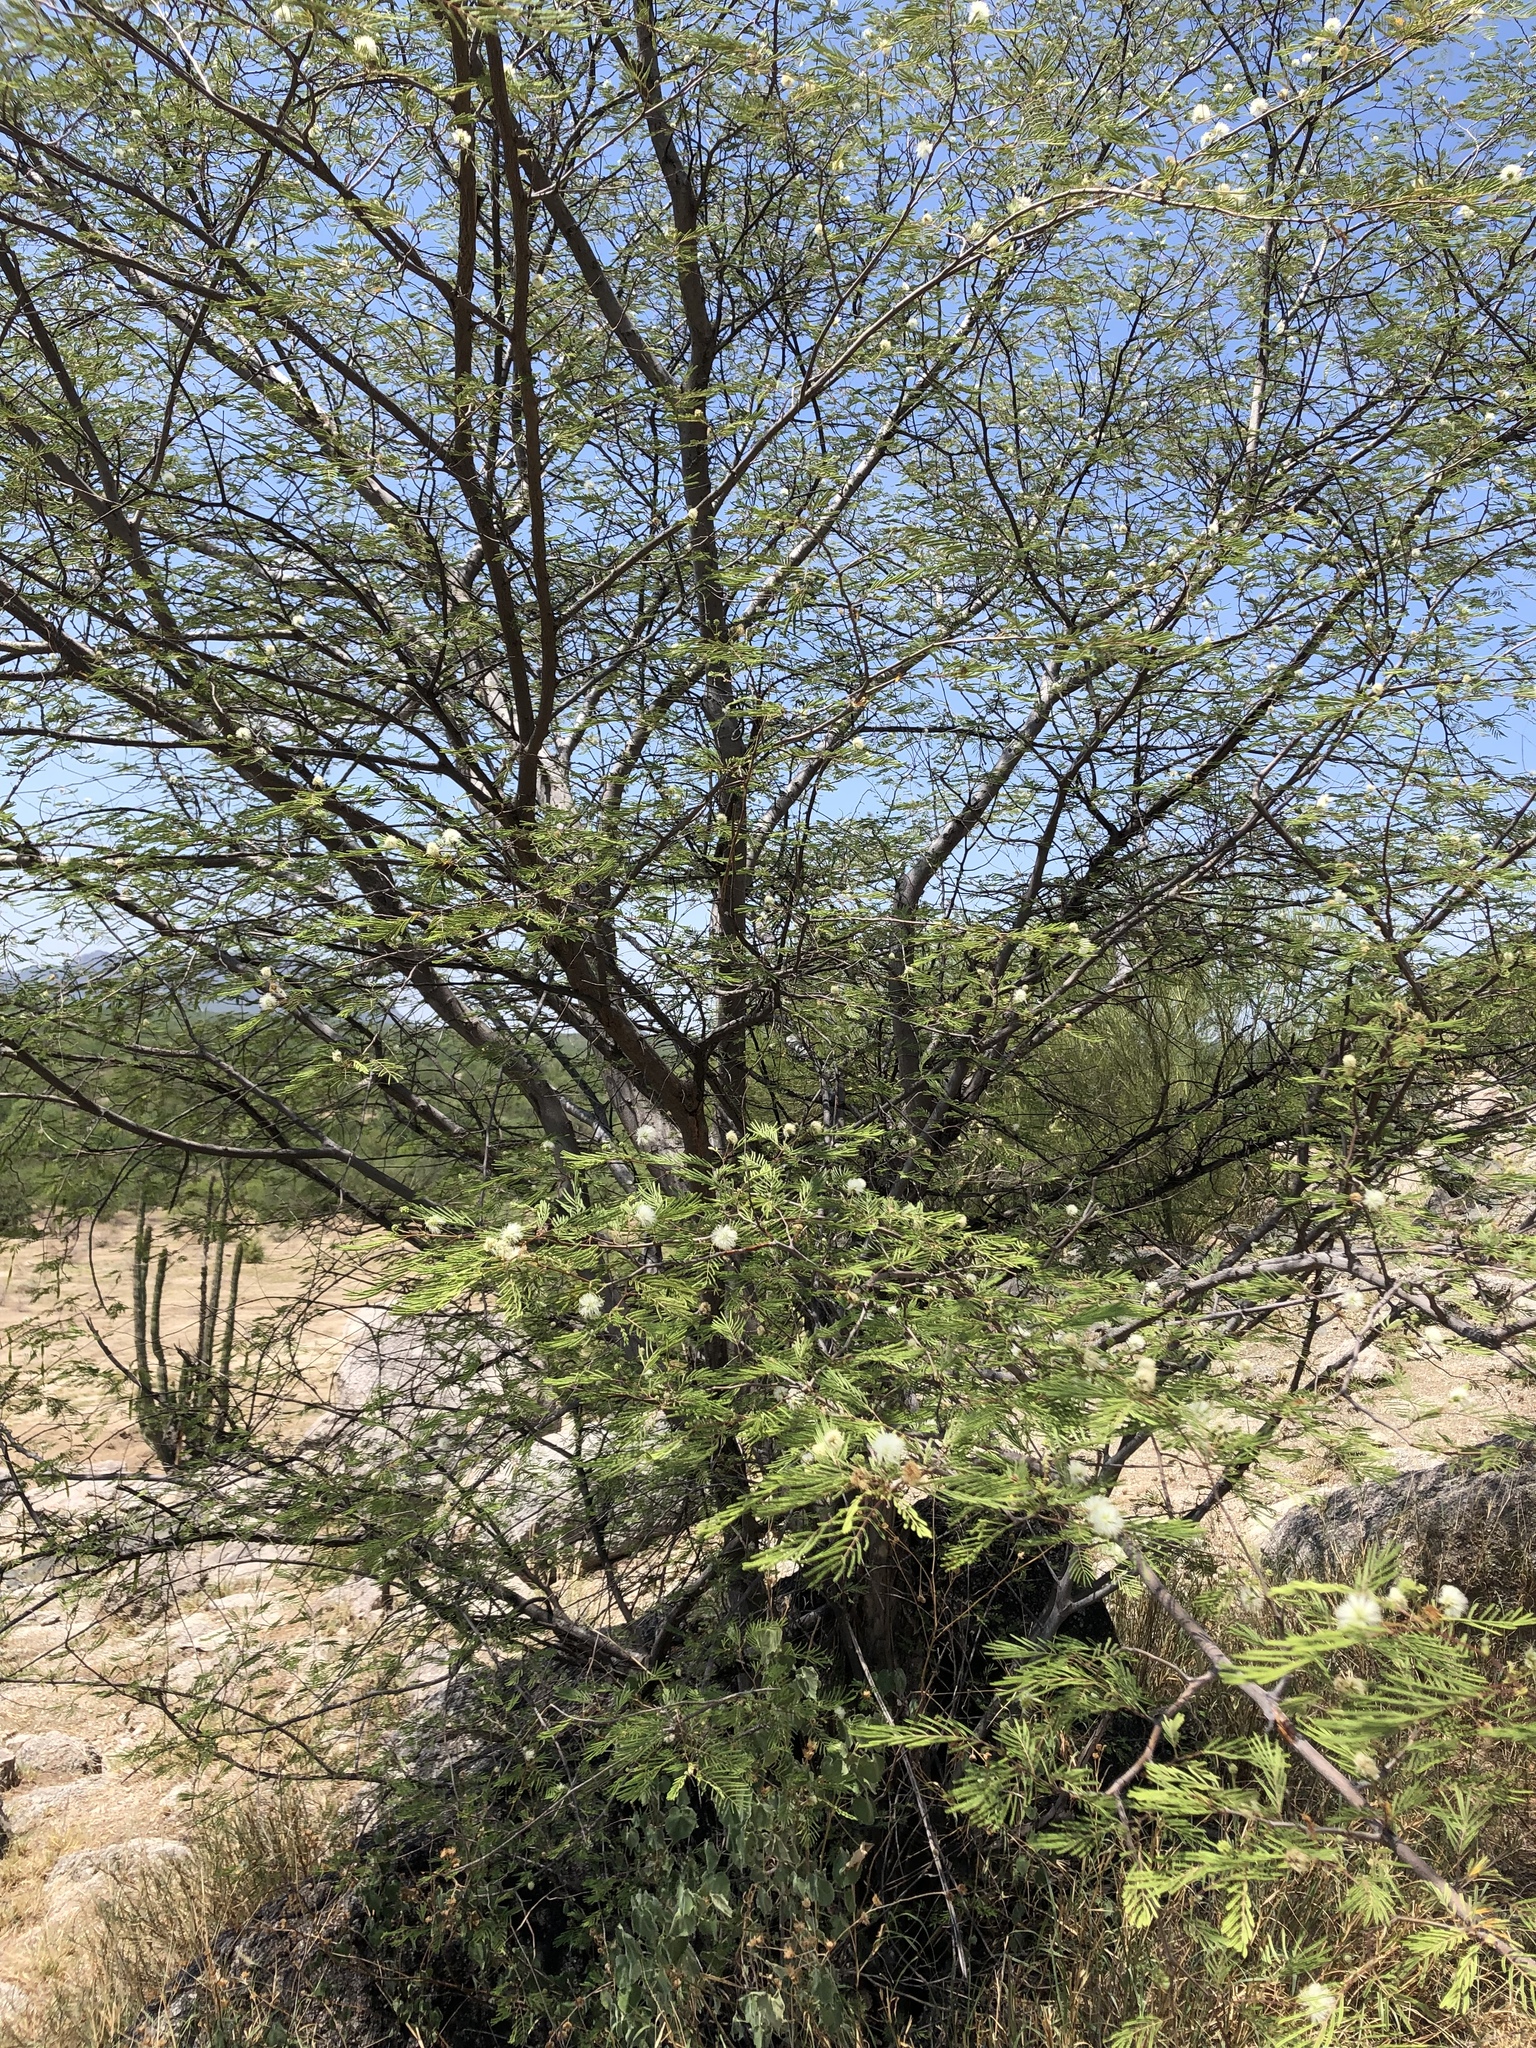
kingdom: Plantae
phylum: Tracheophyta
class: Magnoliopsida
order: Fabales
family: Fabaceae
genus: Lysiloma
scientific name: Lysiloma watsonii
